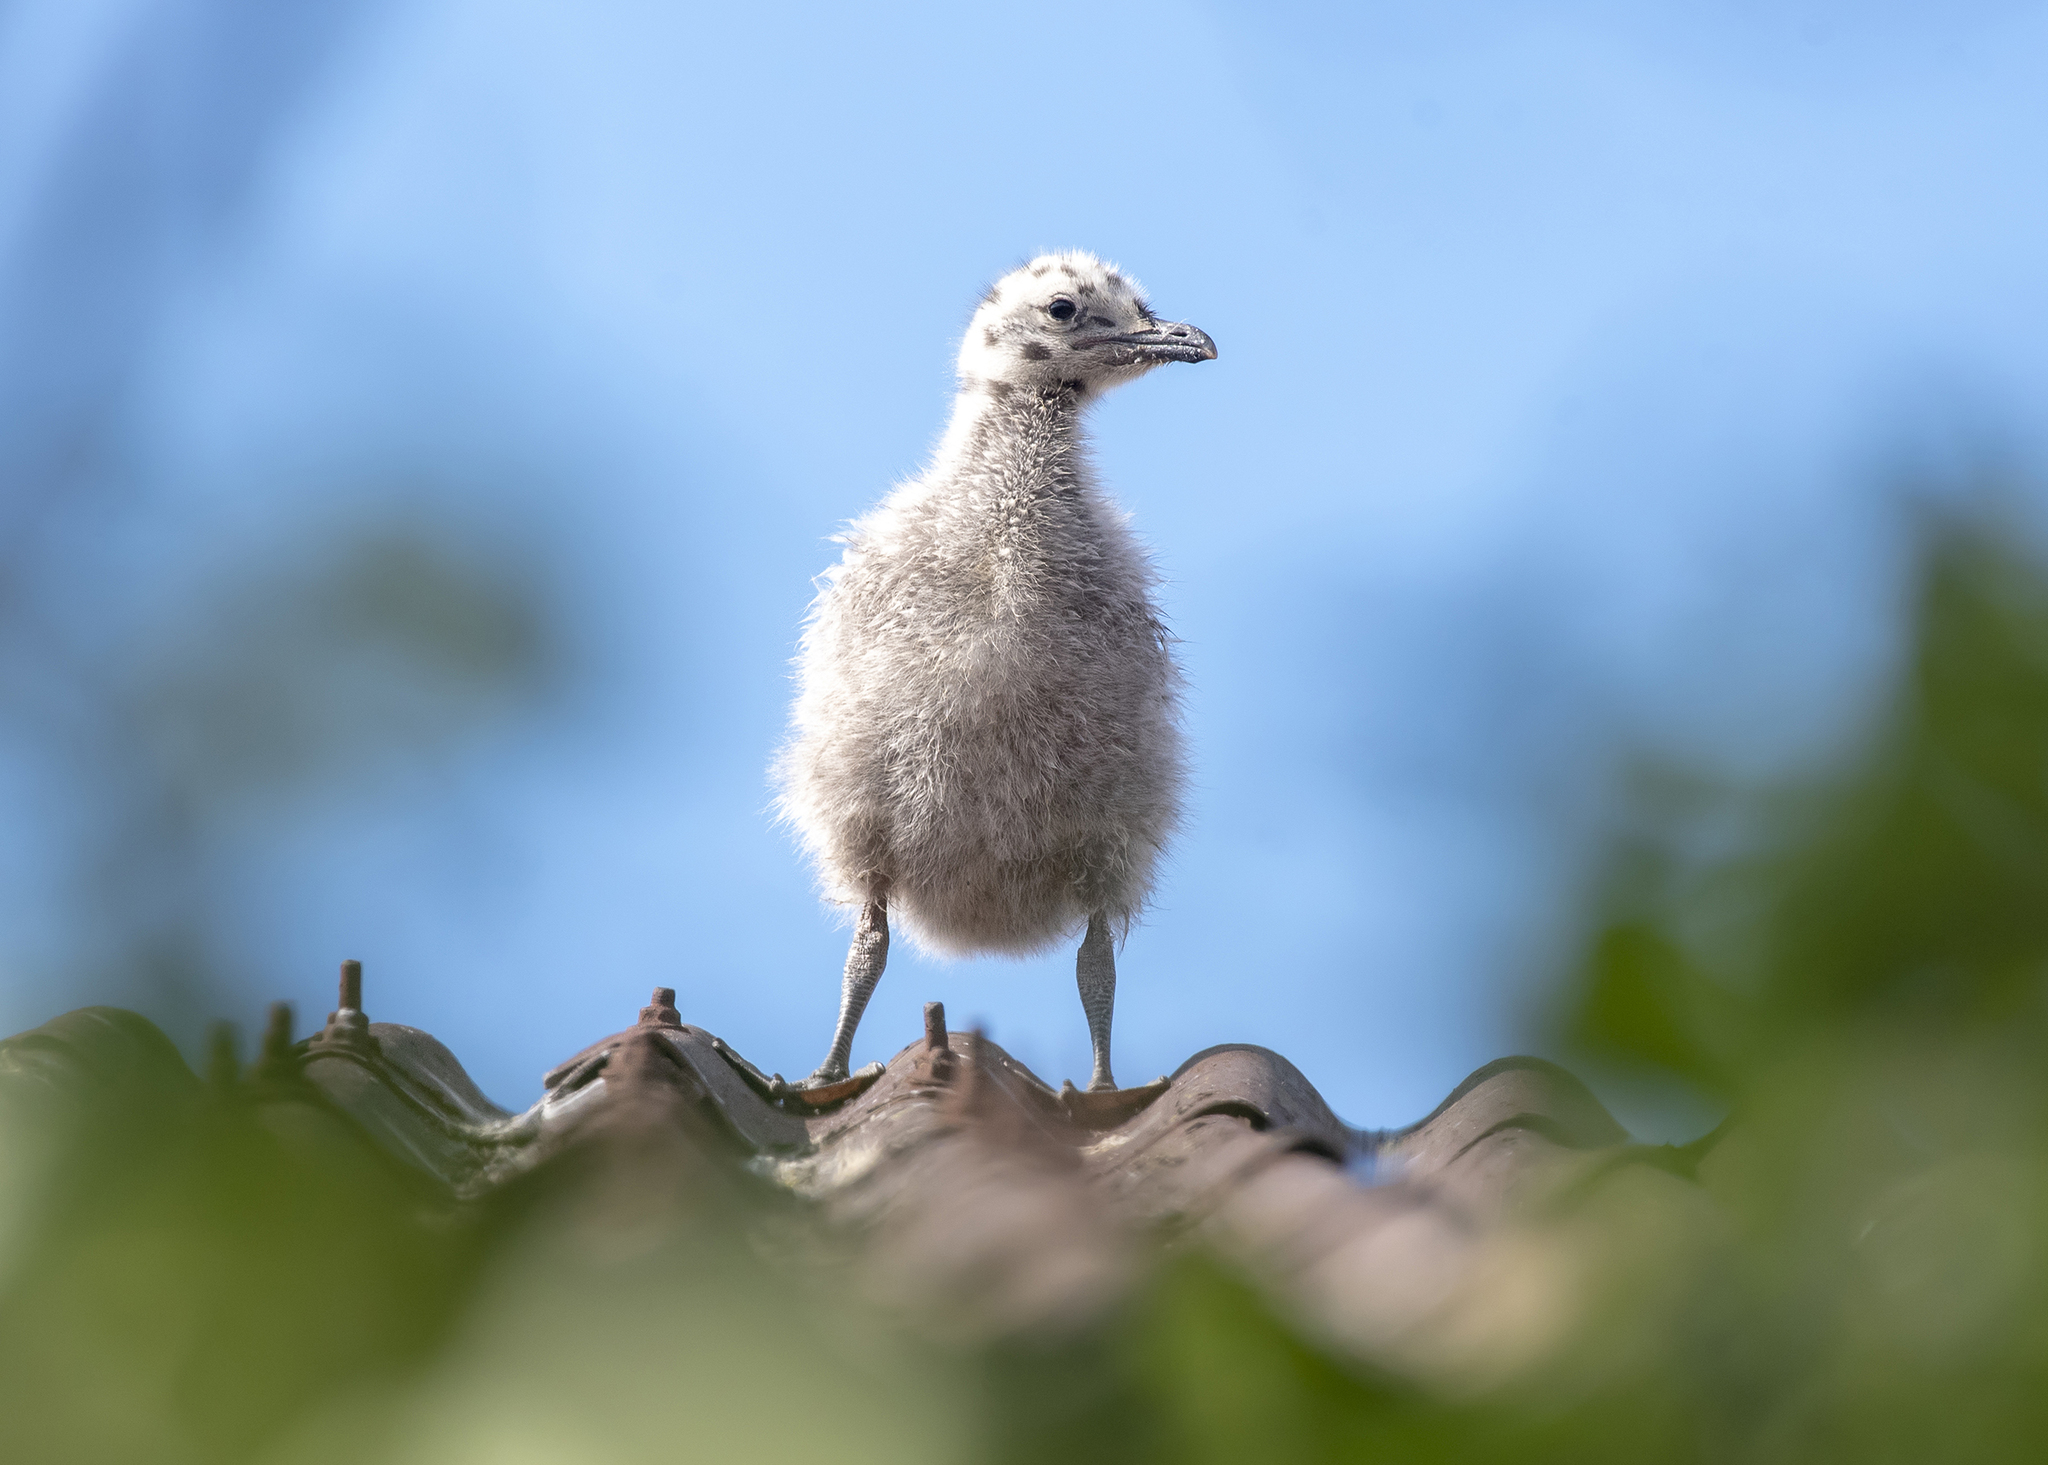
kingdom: Animalia
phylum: Chordata
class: Aves
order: Charadriiformes
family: Laridae
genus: Larus
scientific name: Larus argentatus
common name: Herring gull
